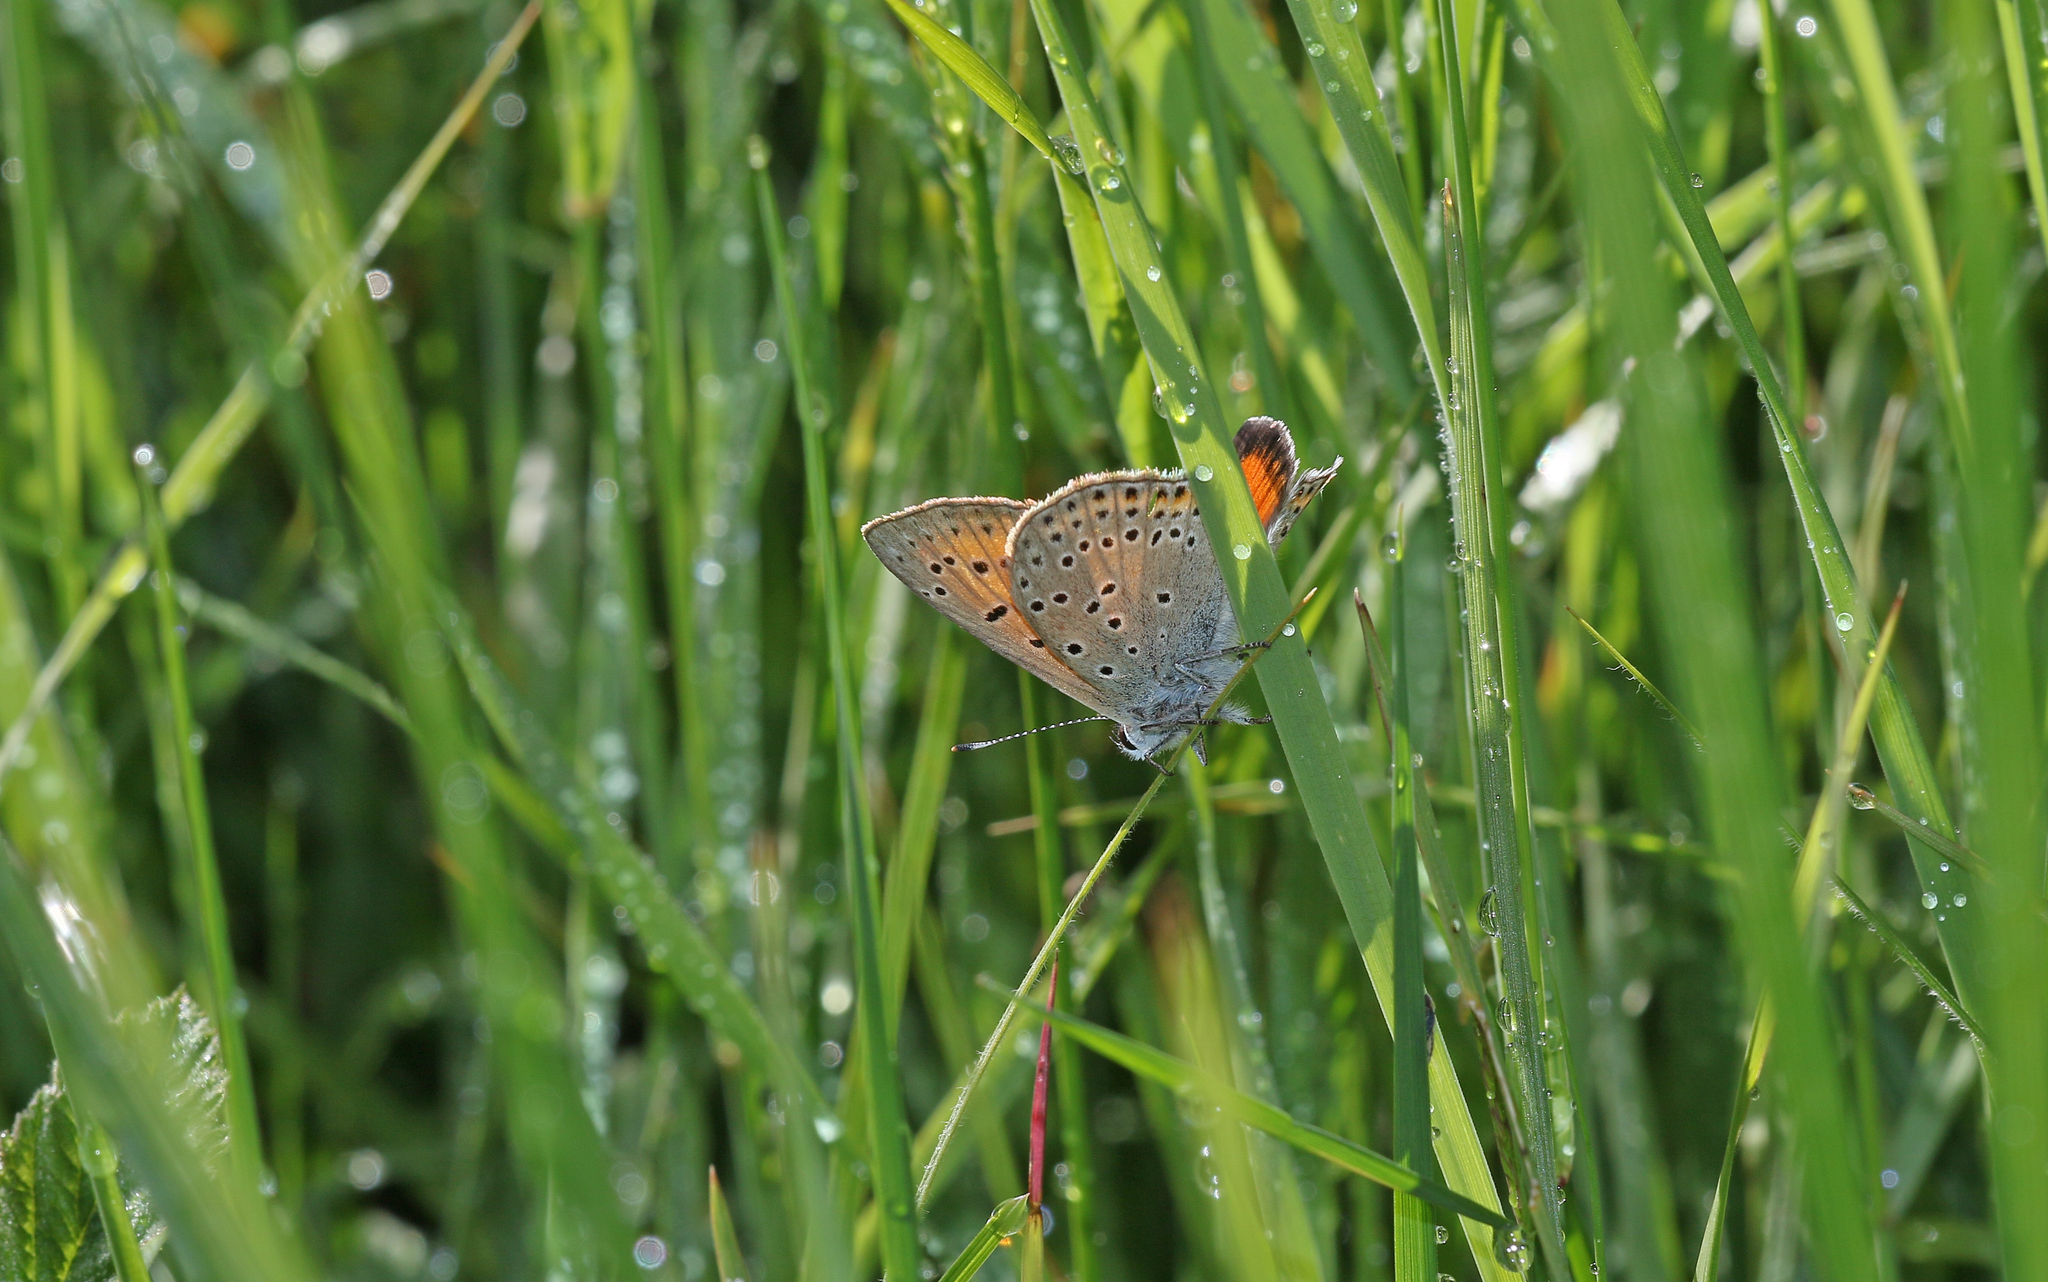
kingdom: Animalia
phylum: Arthropoda
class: Insecta
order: Lepidoptera
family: Lycaenidae
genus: Palaeochrysophanus
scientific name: Palaeochrysophanus candens
